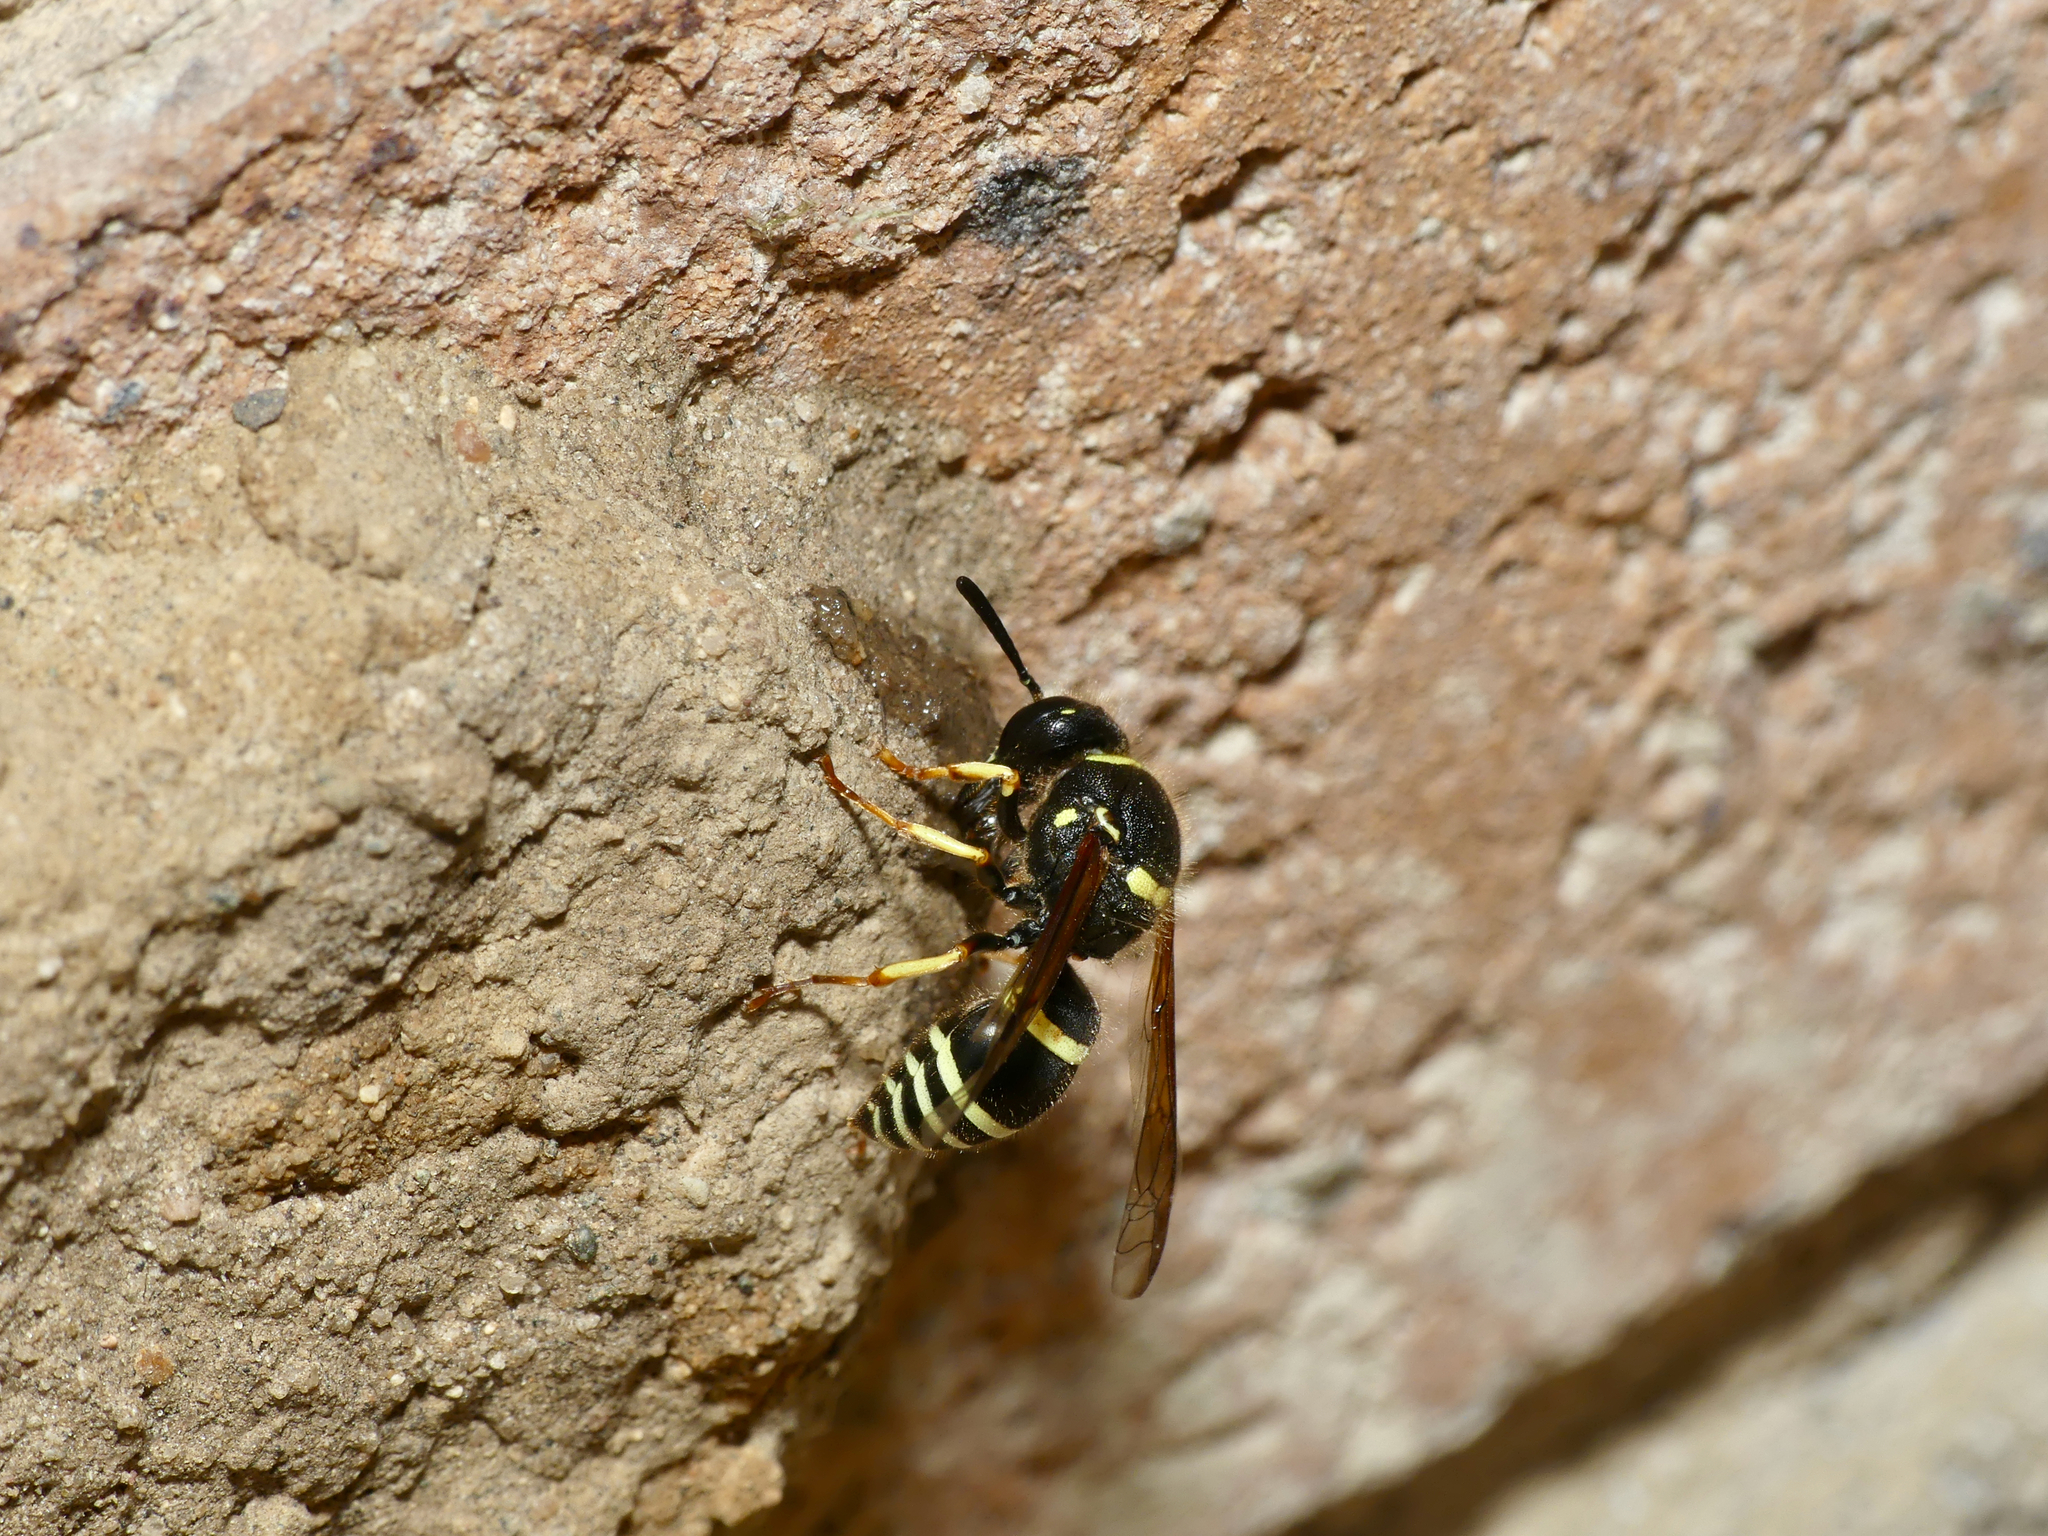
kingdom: Animalia
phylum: Arthropoda
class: Insecta
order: Hymenoptera
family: Vespidae
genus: Ancistrocerus
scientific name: Ancistrocerus waldenii
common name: Walden’s potter wasp
